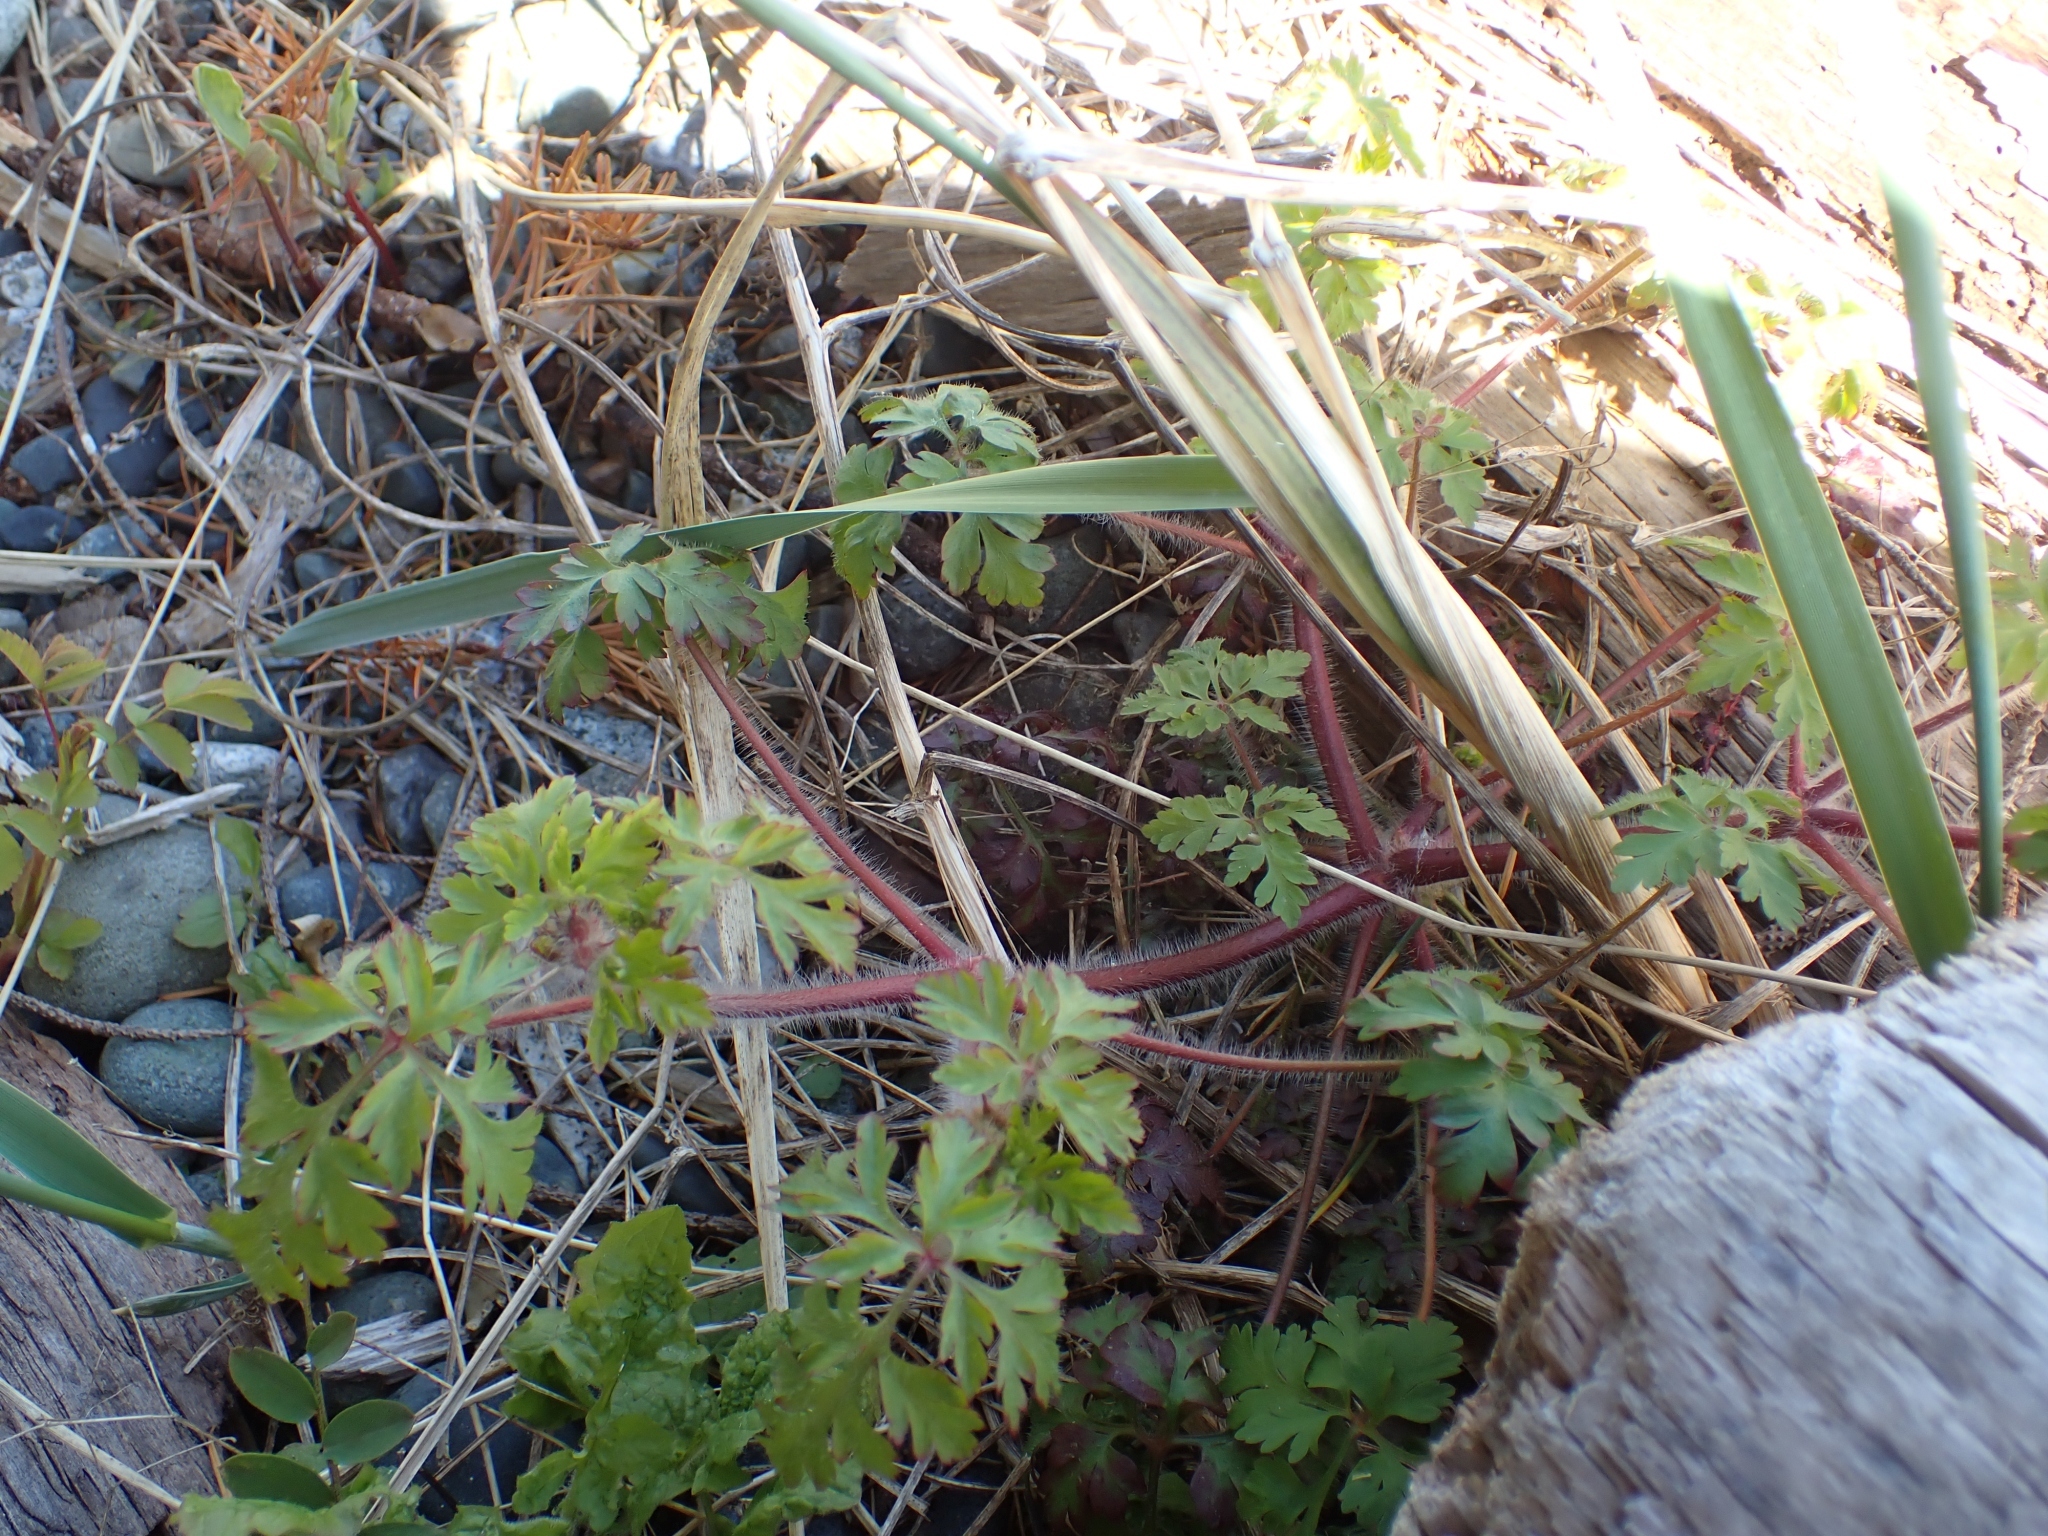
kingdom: Plantae
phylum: Tracheophyta
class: Magnoliopsida
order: Geraniales
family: Geraniaceae
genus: Geranium
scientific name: Geranium robertianum
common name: Herb-robert
